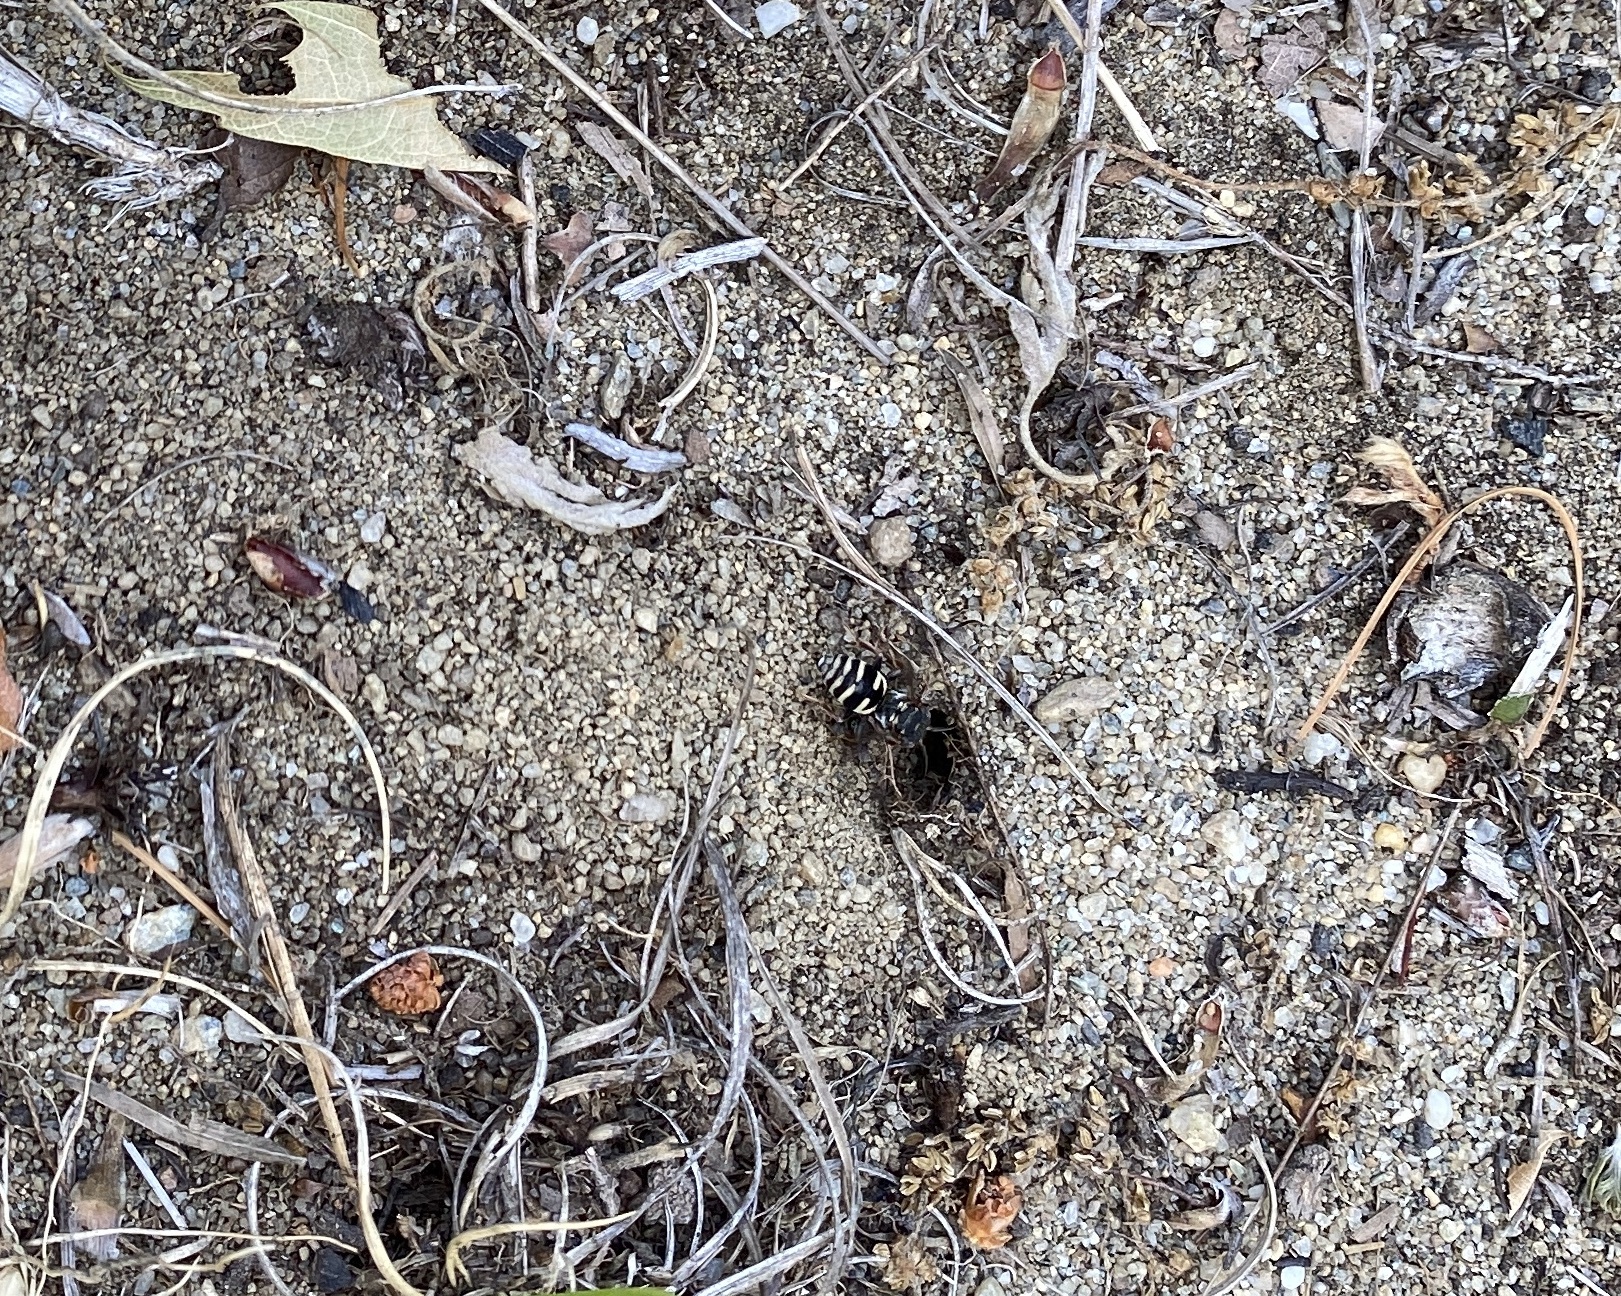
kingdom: Animalia
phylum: Arthropoda
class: Insecta
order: Hymenoptera
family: Apidae
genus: Epeolus
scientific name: Epeolus canadensis
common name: Canadian cellophane-cuckoo bee
